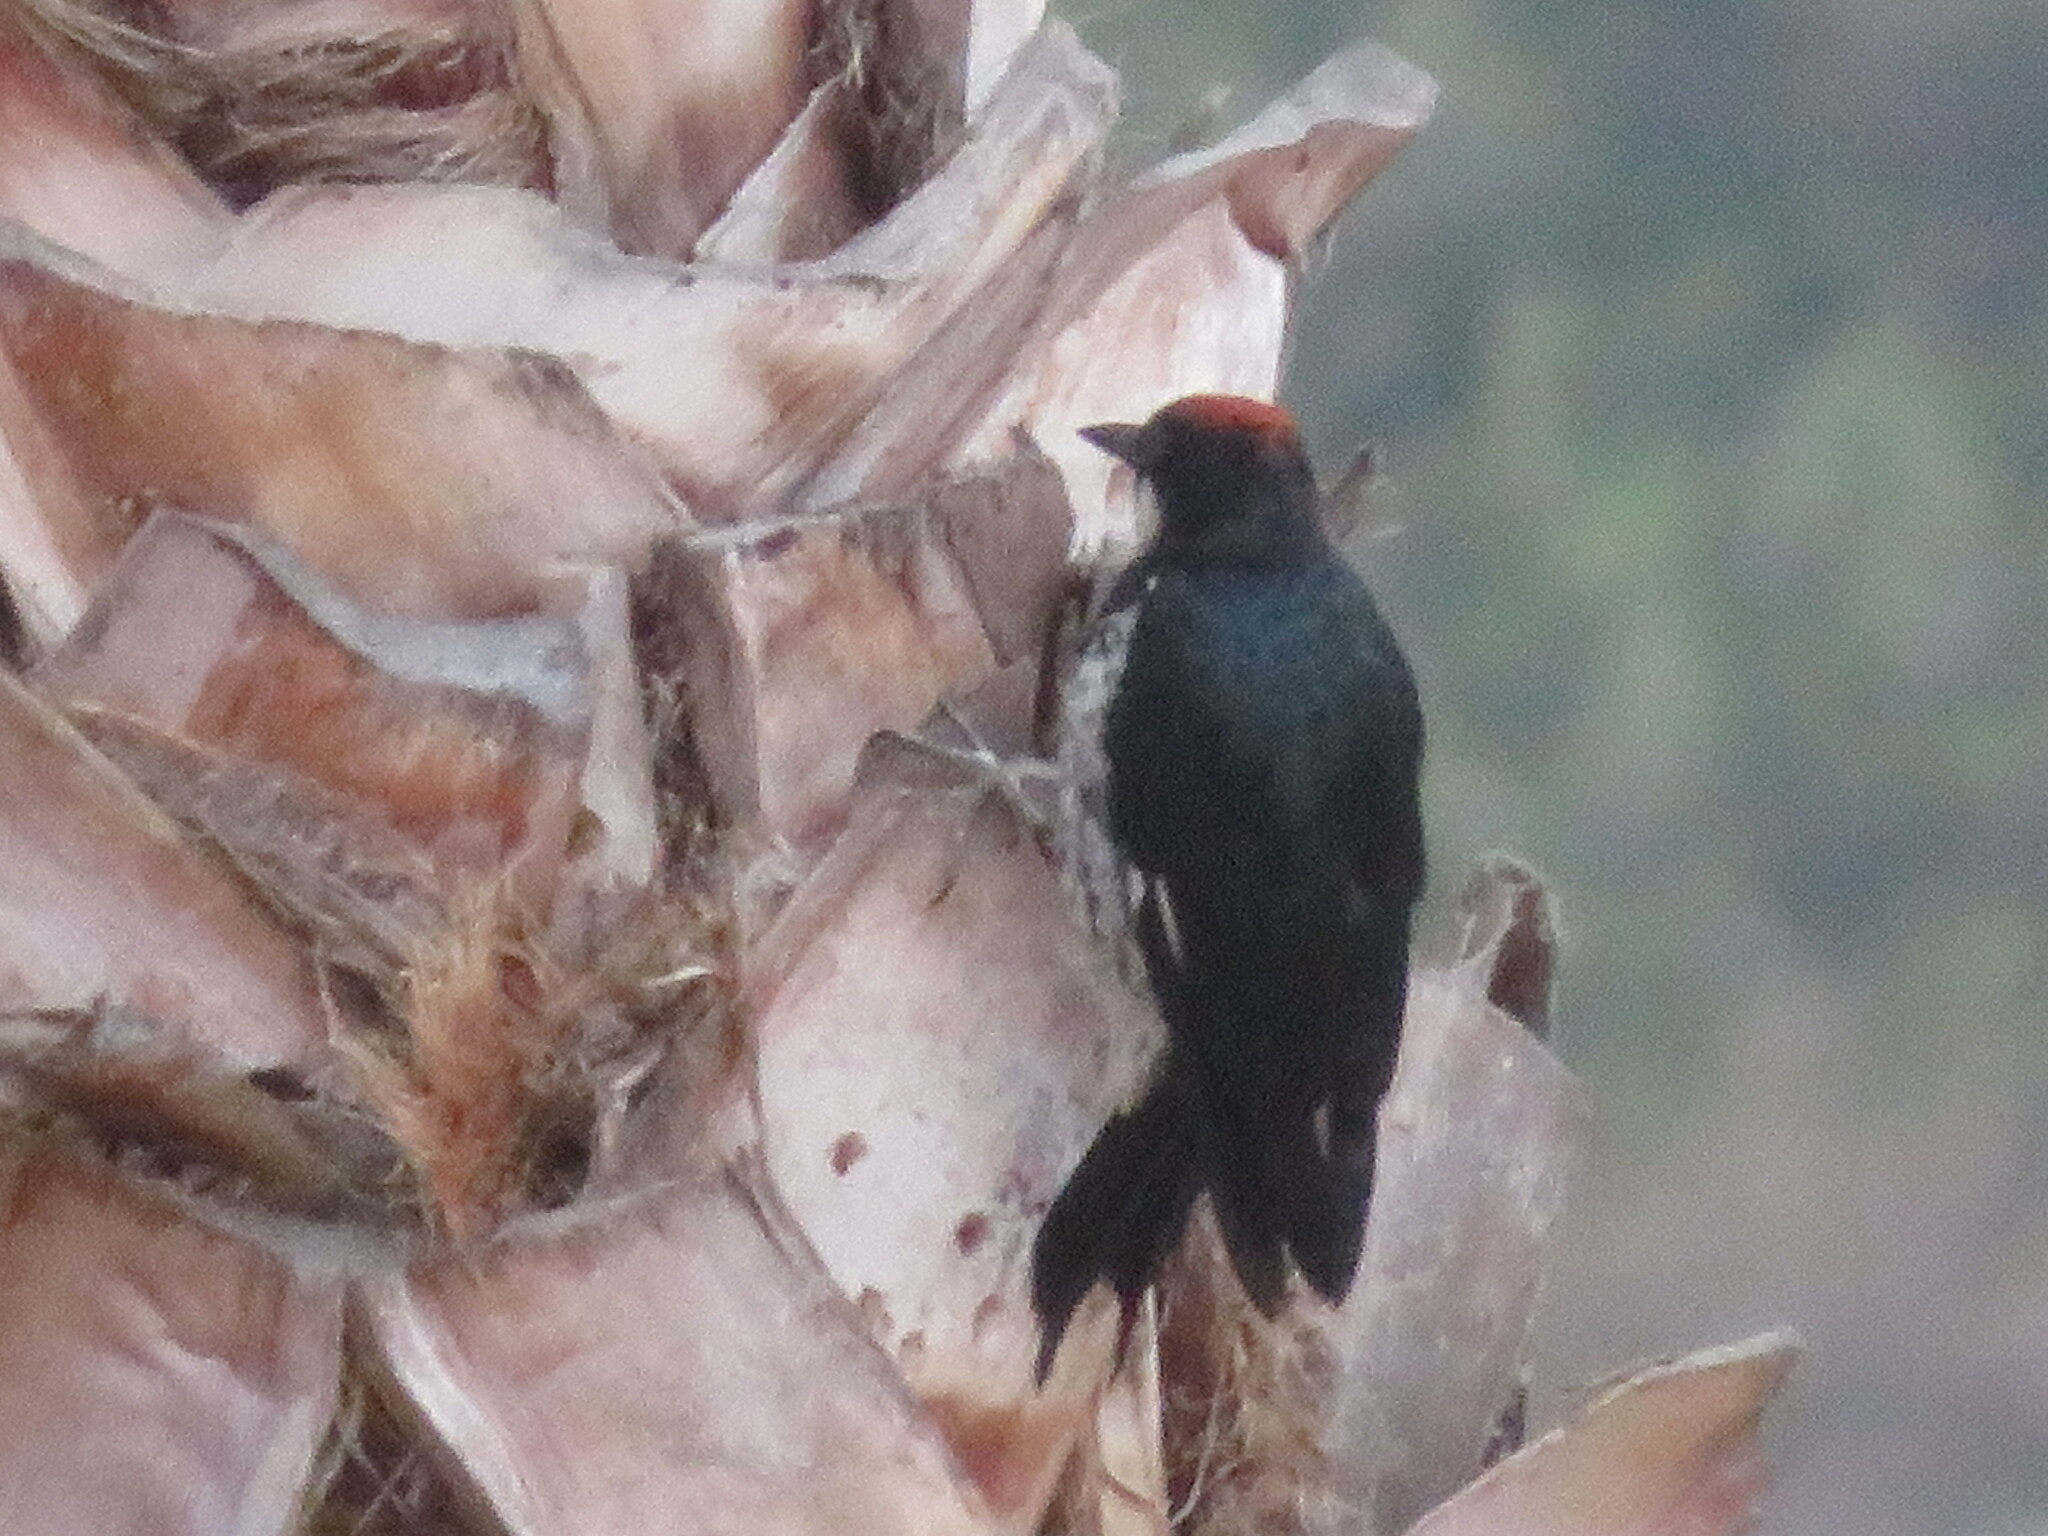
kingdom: Animalia
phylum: Chordata
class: Aves
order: Piciformes
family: Picidae
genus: Melanerpes
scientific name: Melanerpes formicivorus
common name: Acorn woodpecker
